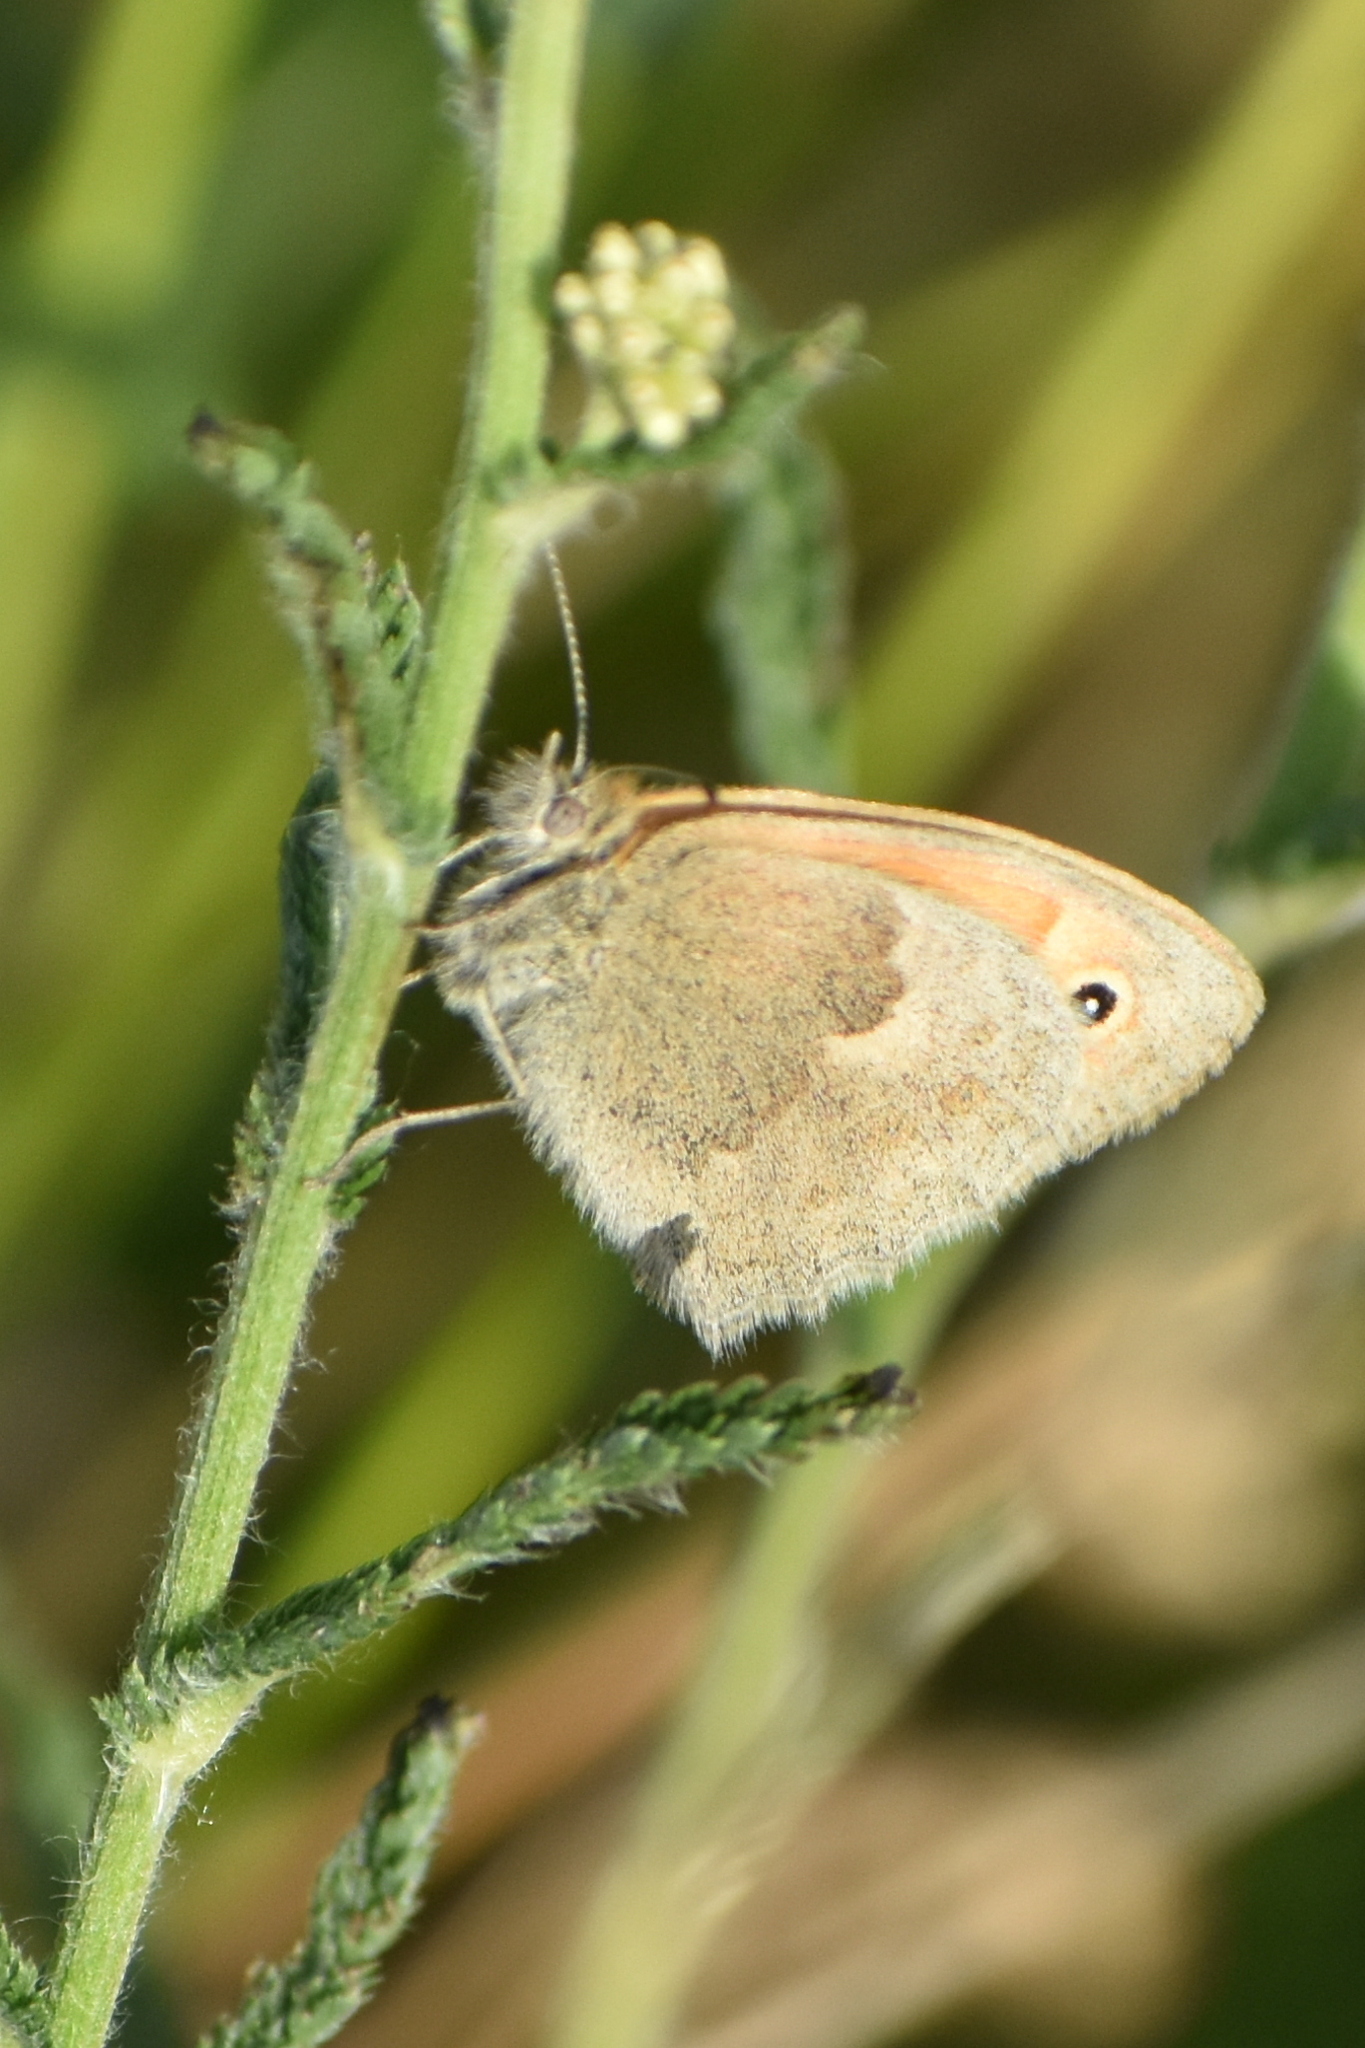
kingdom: Animalia
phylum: Arthropoda
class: Insecta
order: Lepidoptera
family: Nymphalidae
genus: Coenonympha
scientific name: Coenonympha pamphilus
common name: Small heath
